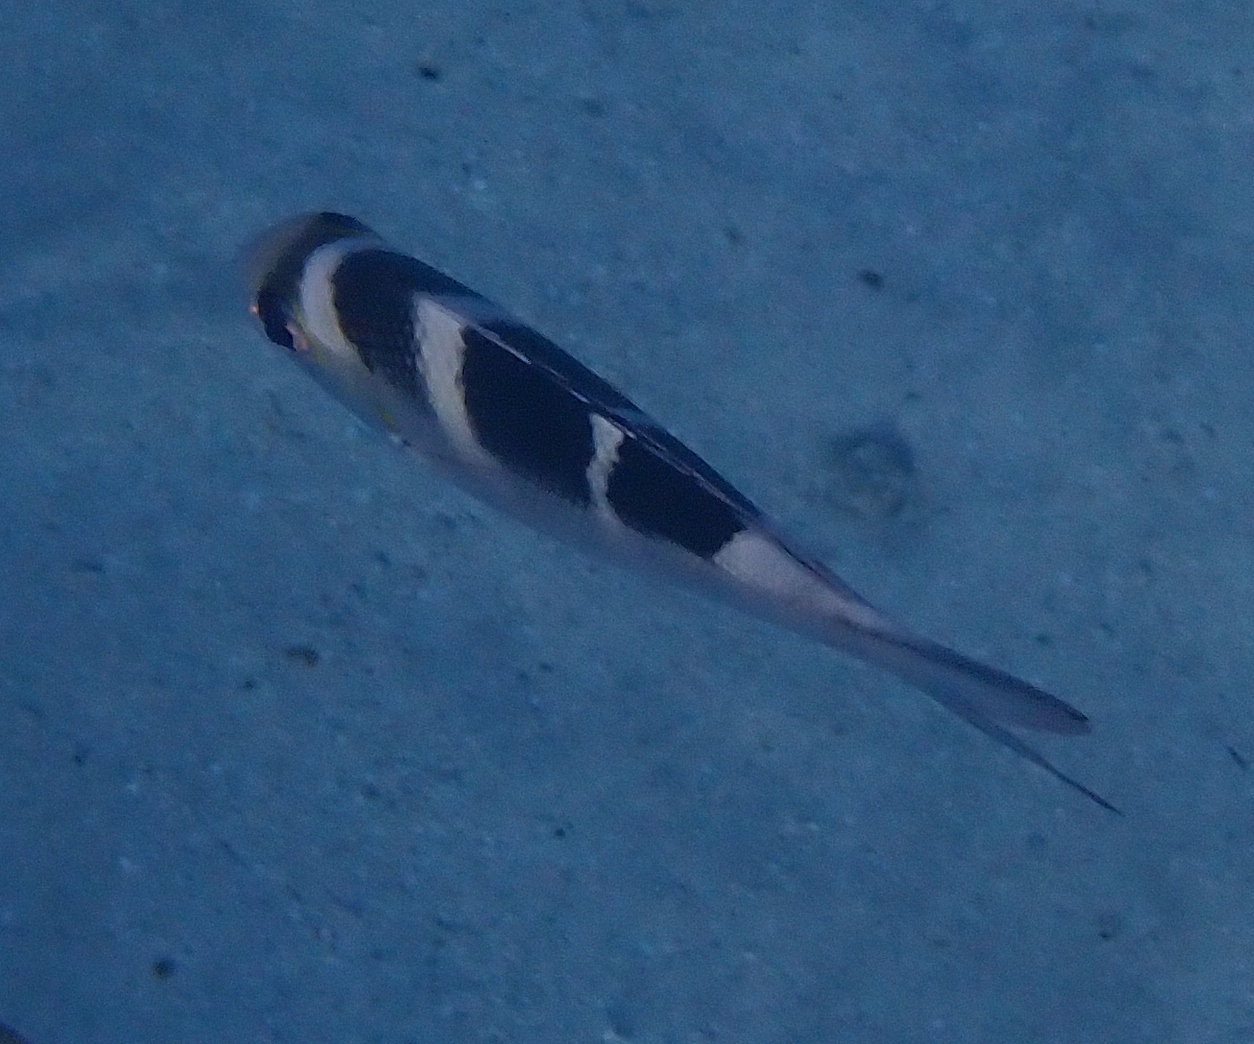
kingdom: Animalia
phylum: Chordata
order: Perciformes
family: Lethrinidae
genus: Monotaxis
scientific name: Monotaxis grandoculis
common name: Bigeye emperor
